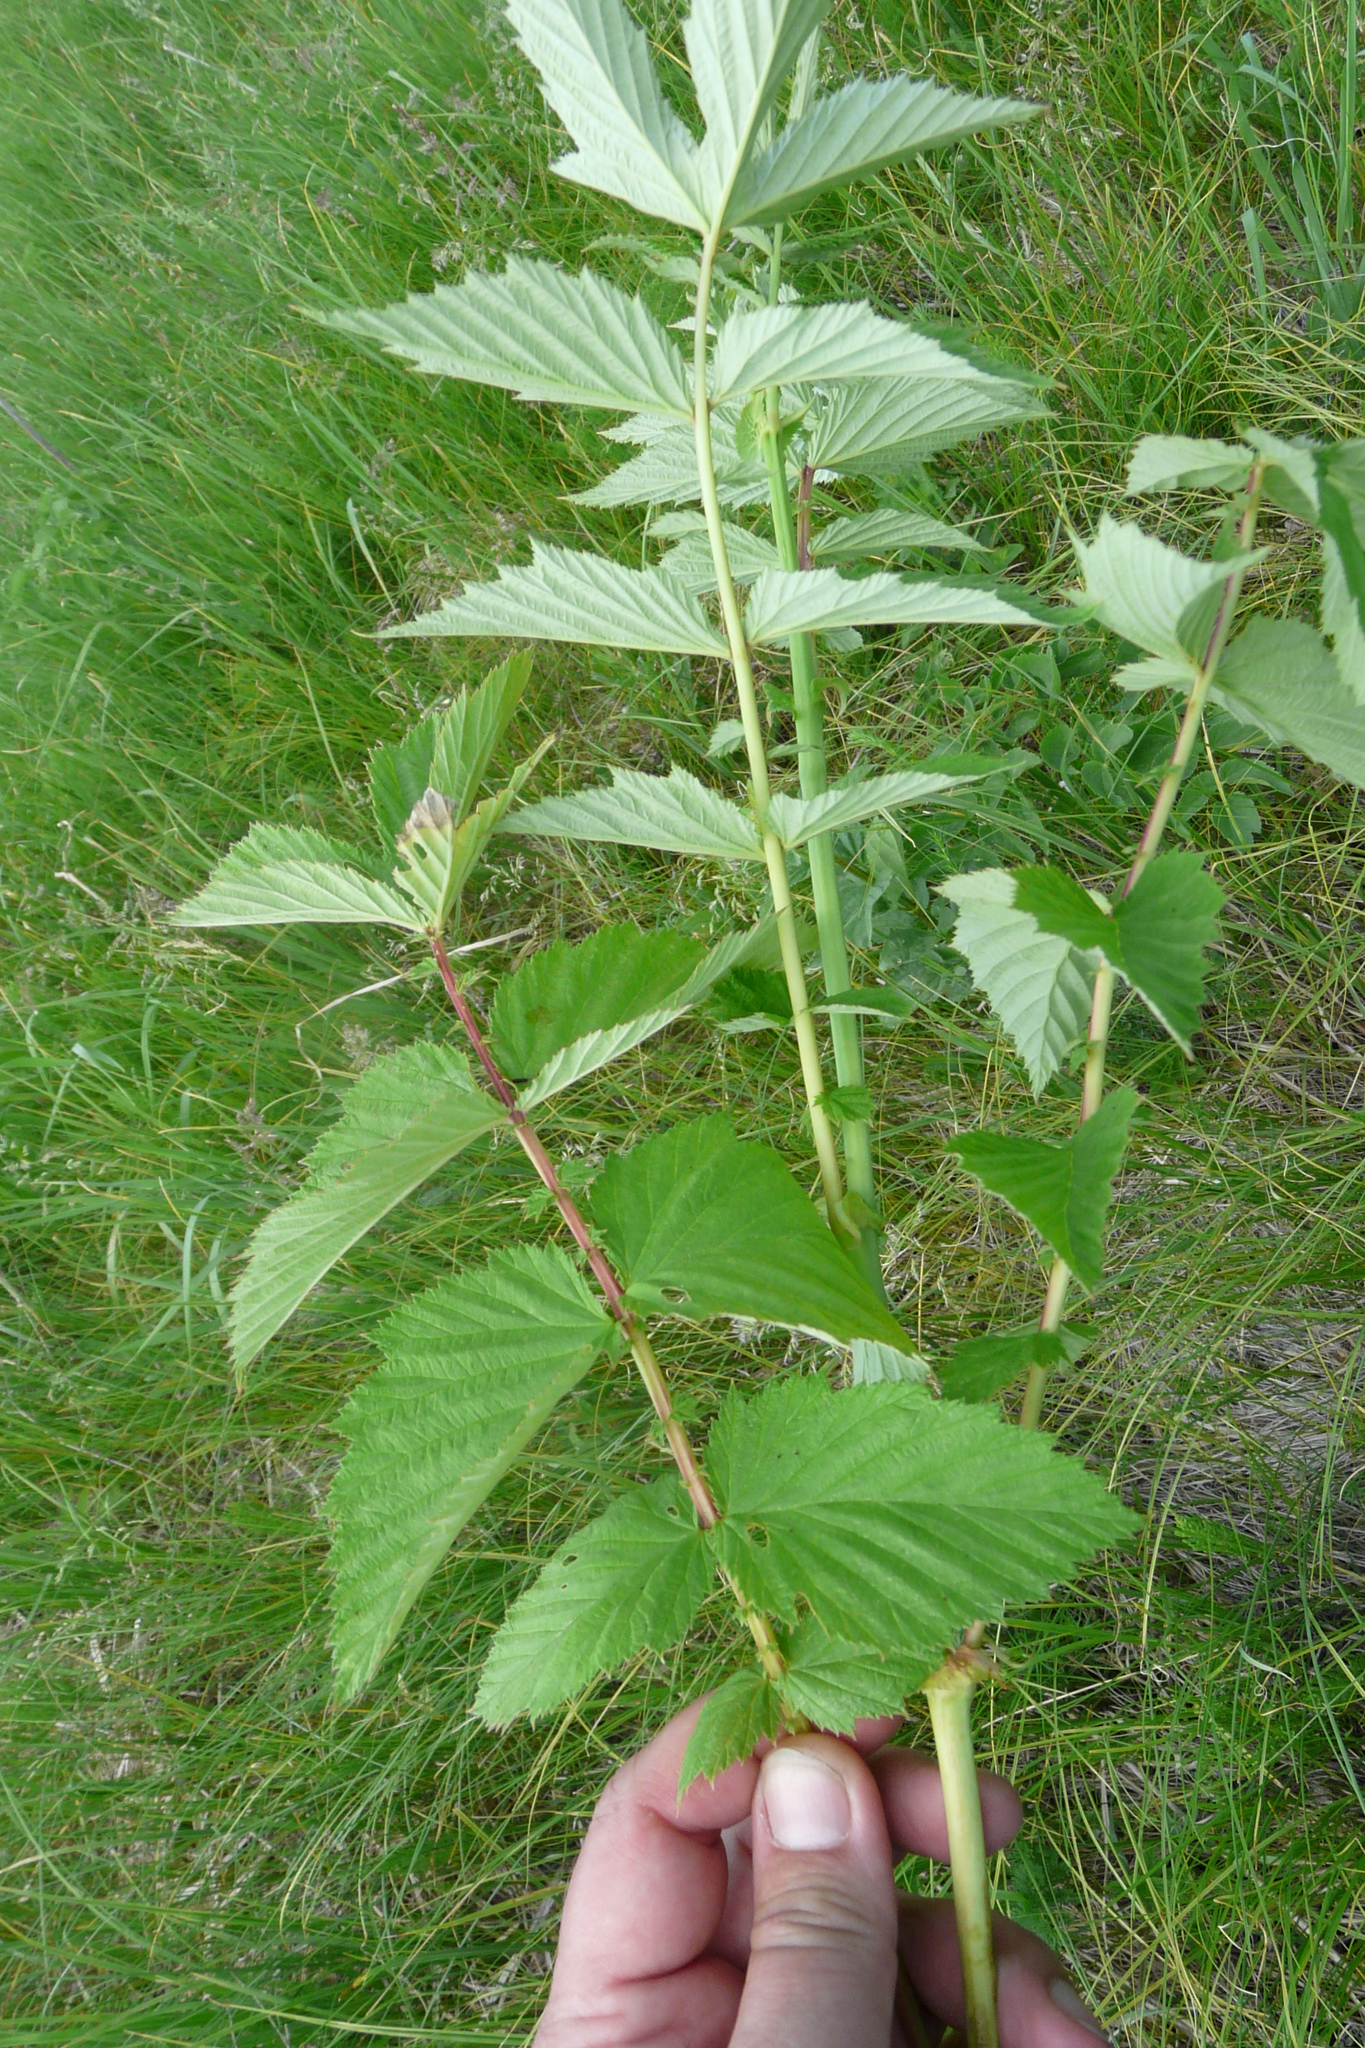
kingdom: Plantae
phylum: Tracheophyta
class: Magnoliopsida
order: Rosales
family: Rosaceae
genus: Filipendula
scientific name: Filipendula ulmaria
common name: Meadowsweet
